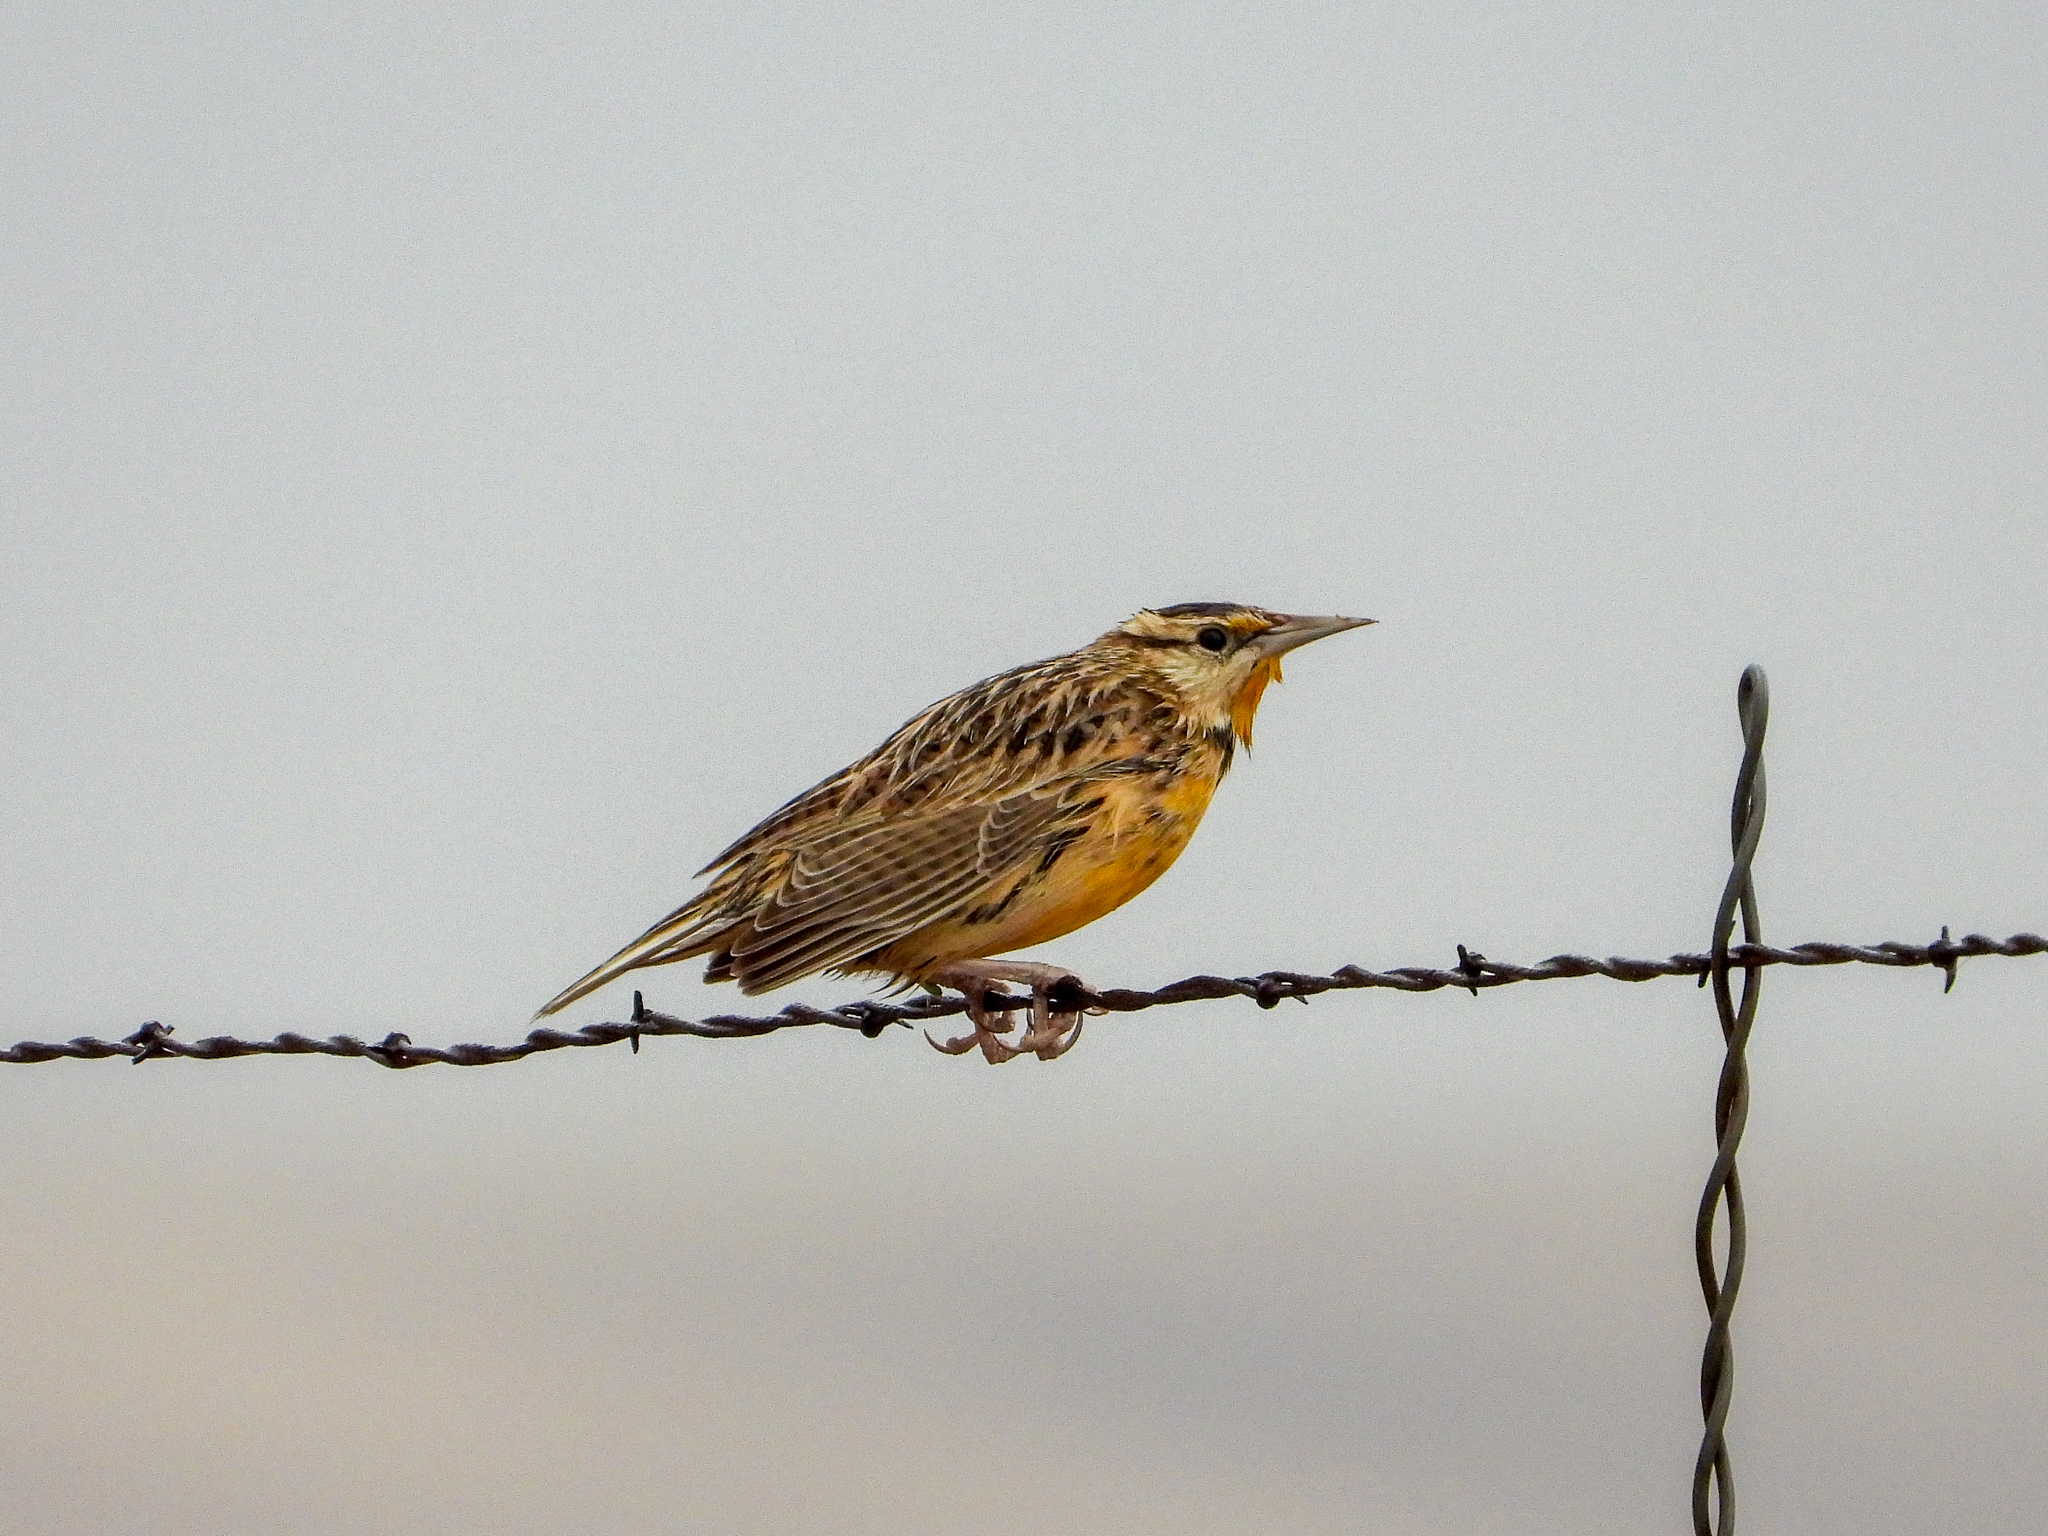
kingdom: Animalia
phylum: Chordata
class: Aves
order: Passeriformes
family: Icteridae
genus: Sturnella
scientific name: Sturnella lilianae
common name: Lilian's meadowlark
